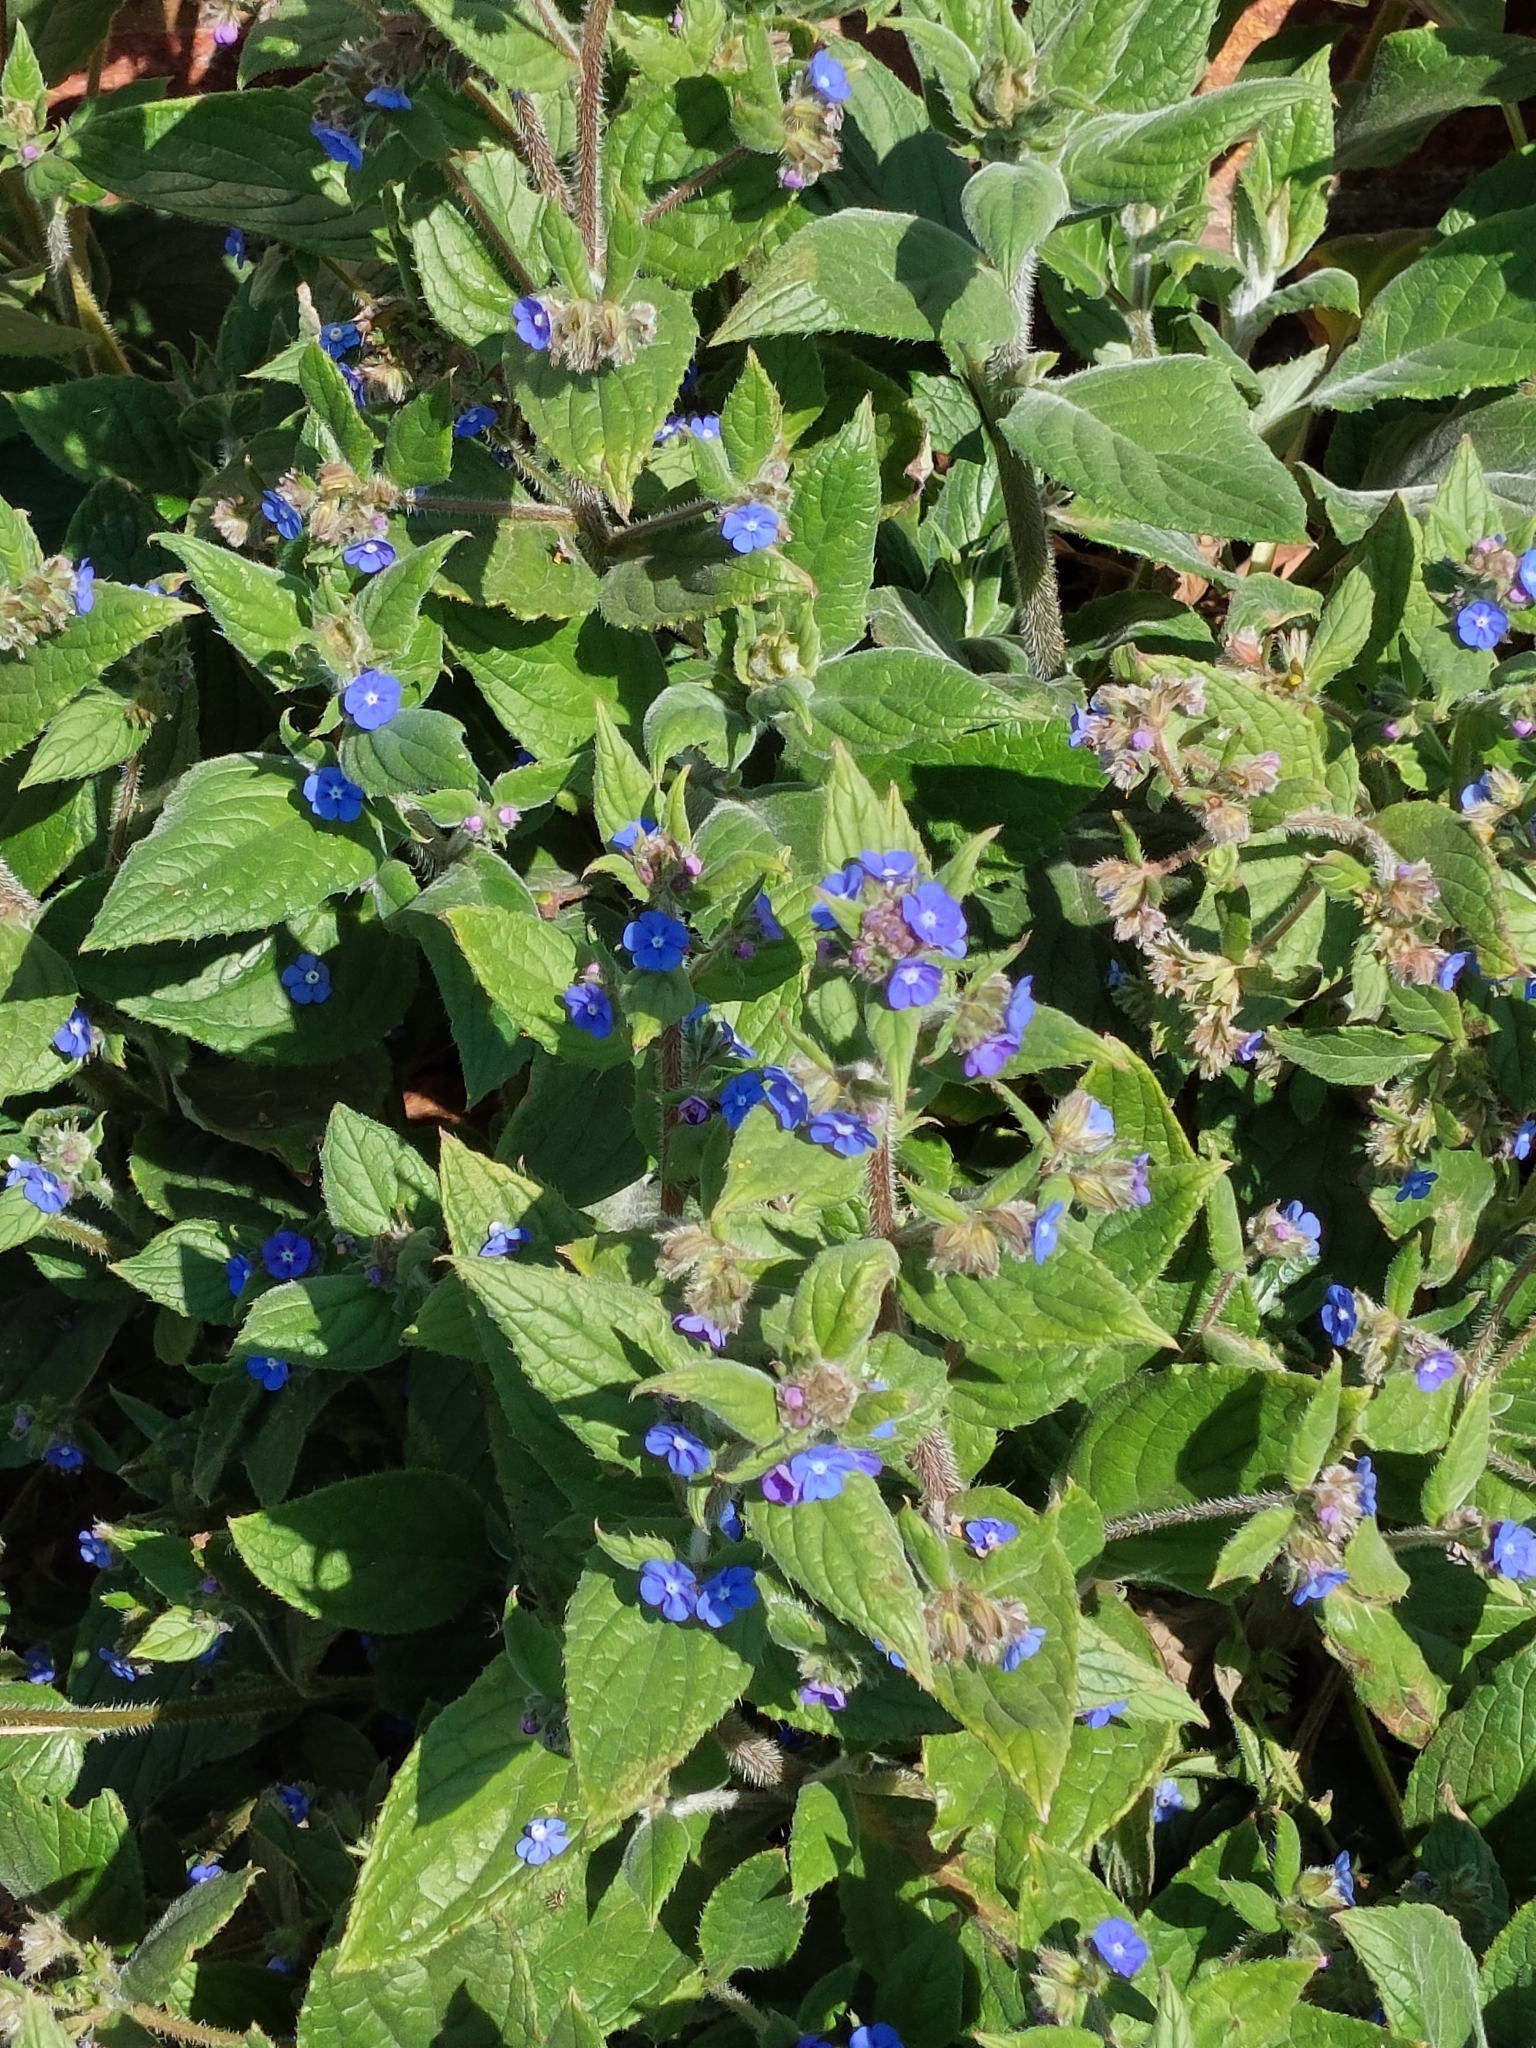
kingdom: Plantae
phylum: Tracheophyta
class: Magnoliopsida
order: Boraginales
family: Boraginaceae
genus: Pentaglottis
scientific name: Pentaglottis sempervirens
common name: Green alkanet
